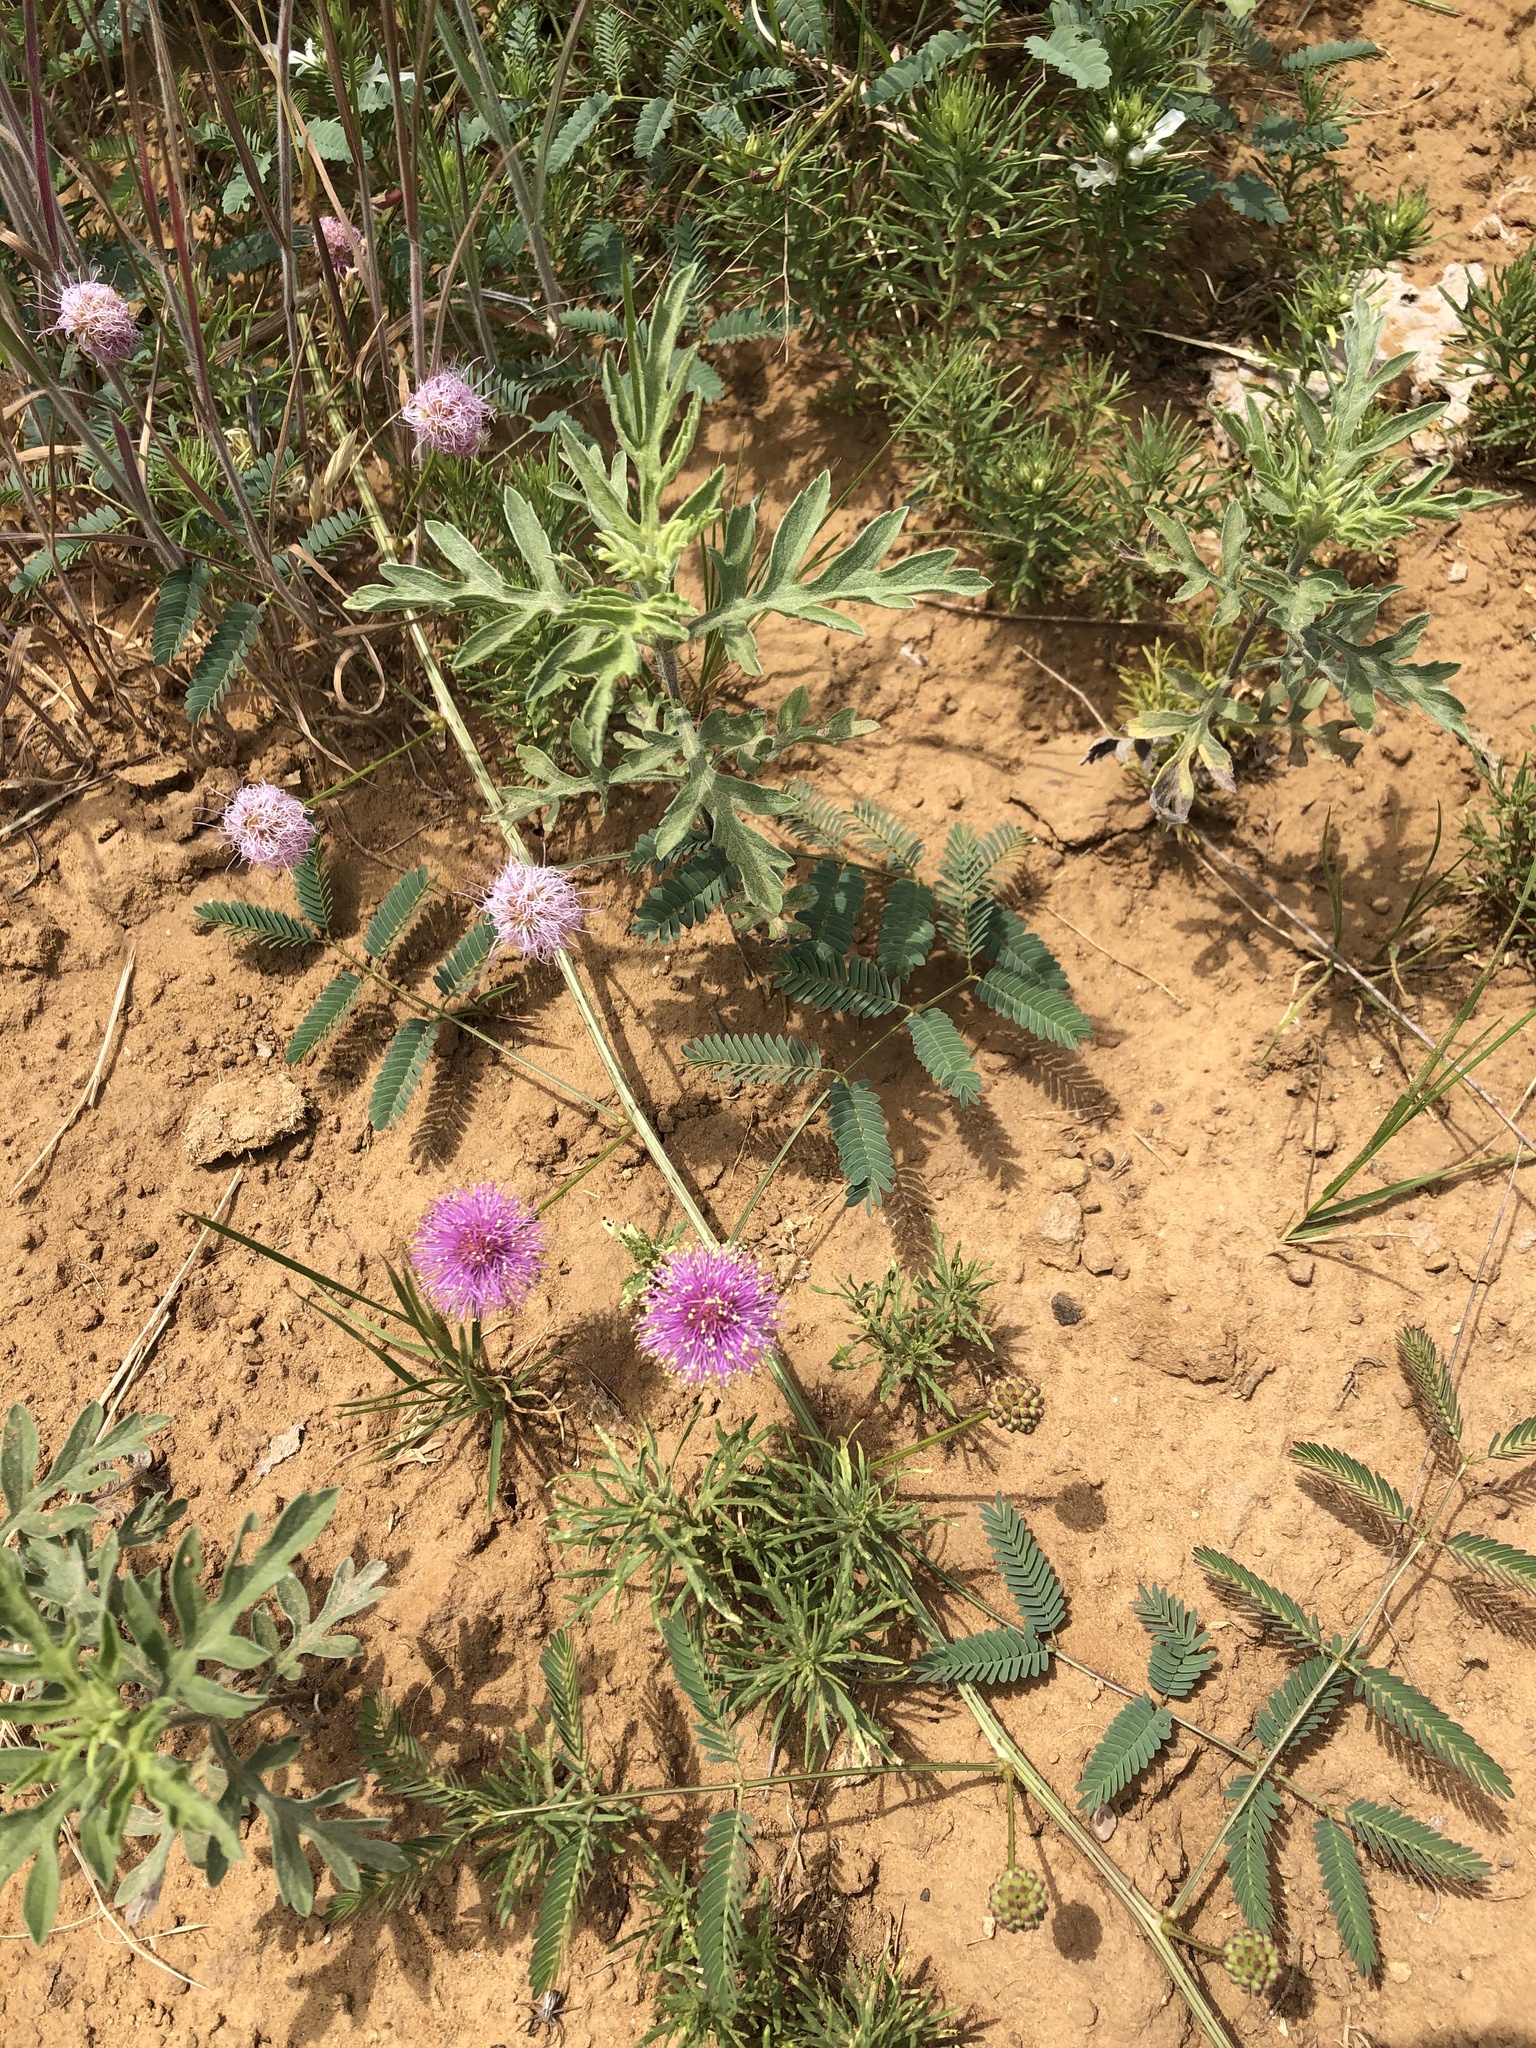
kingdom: Plantae
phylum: Tracheophyta
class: Magnoliopsida
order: Fabales
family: Fabaceae
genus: Mimosa
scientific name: Mimosa quadrivalvis
